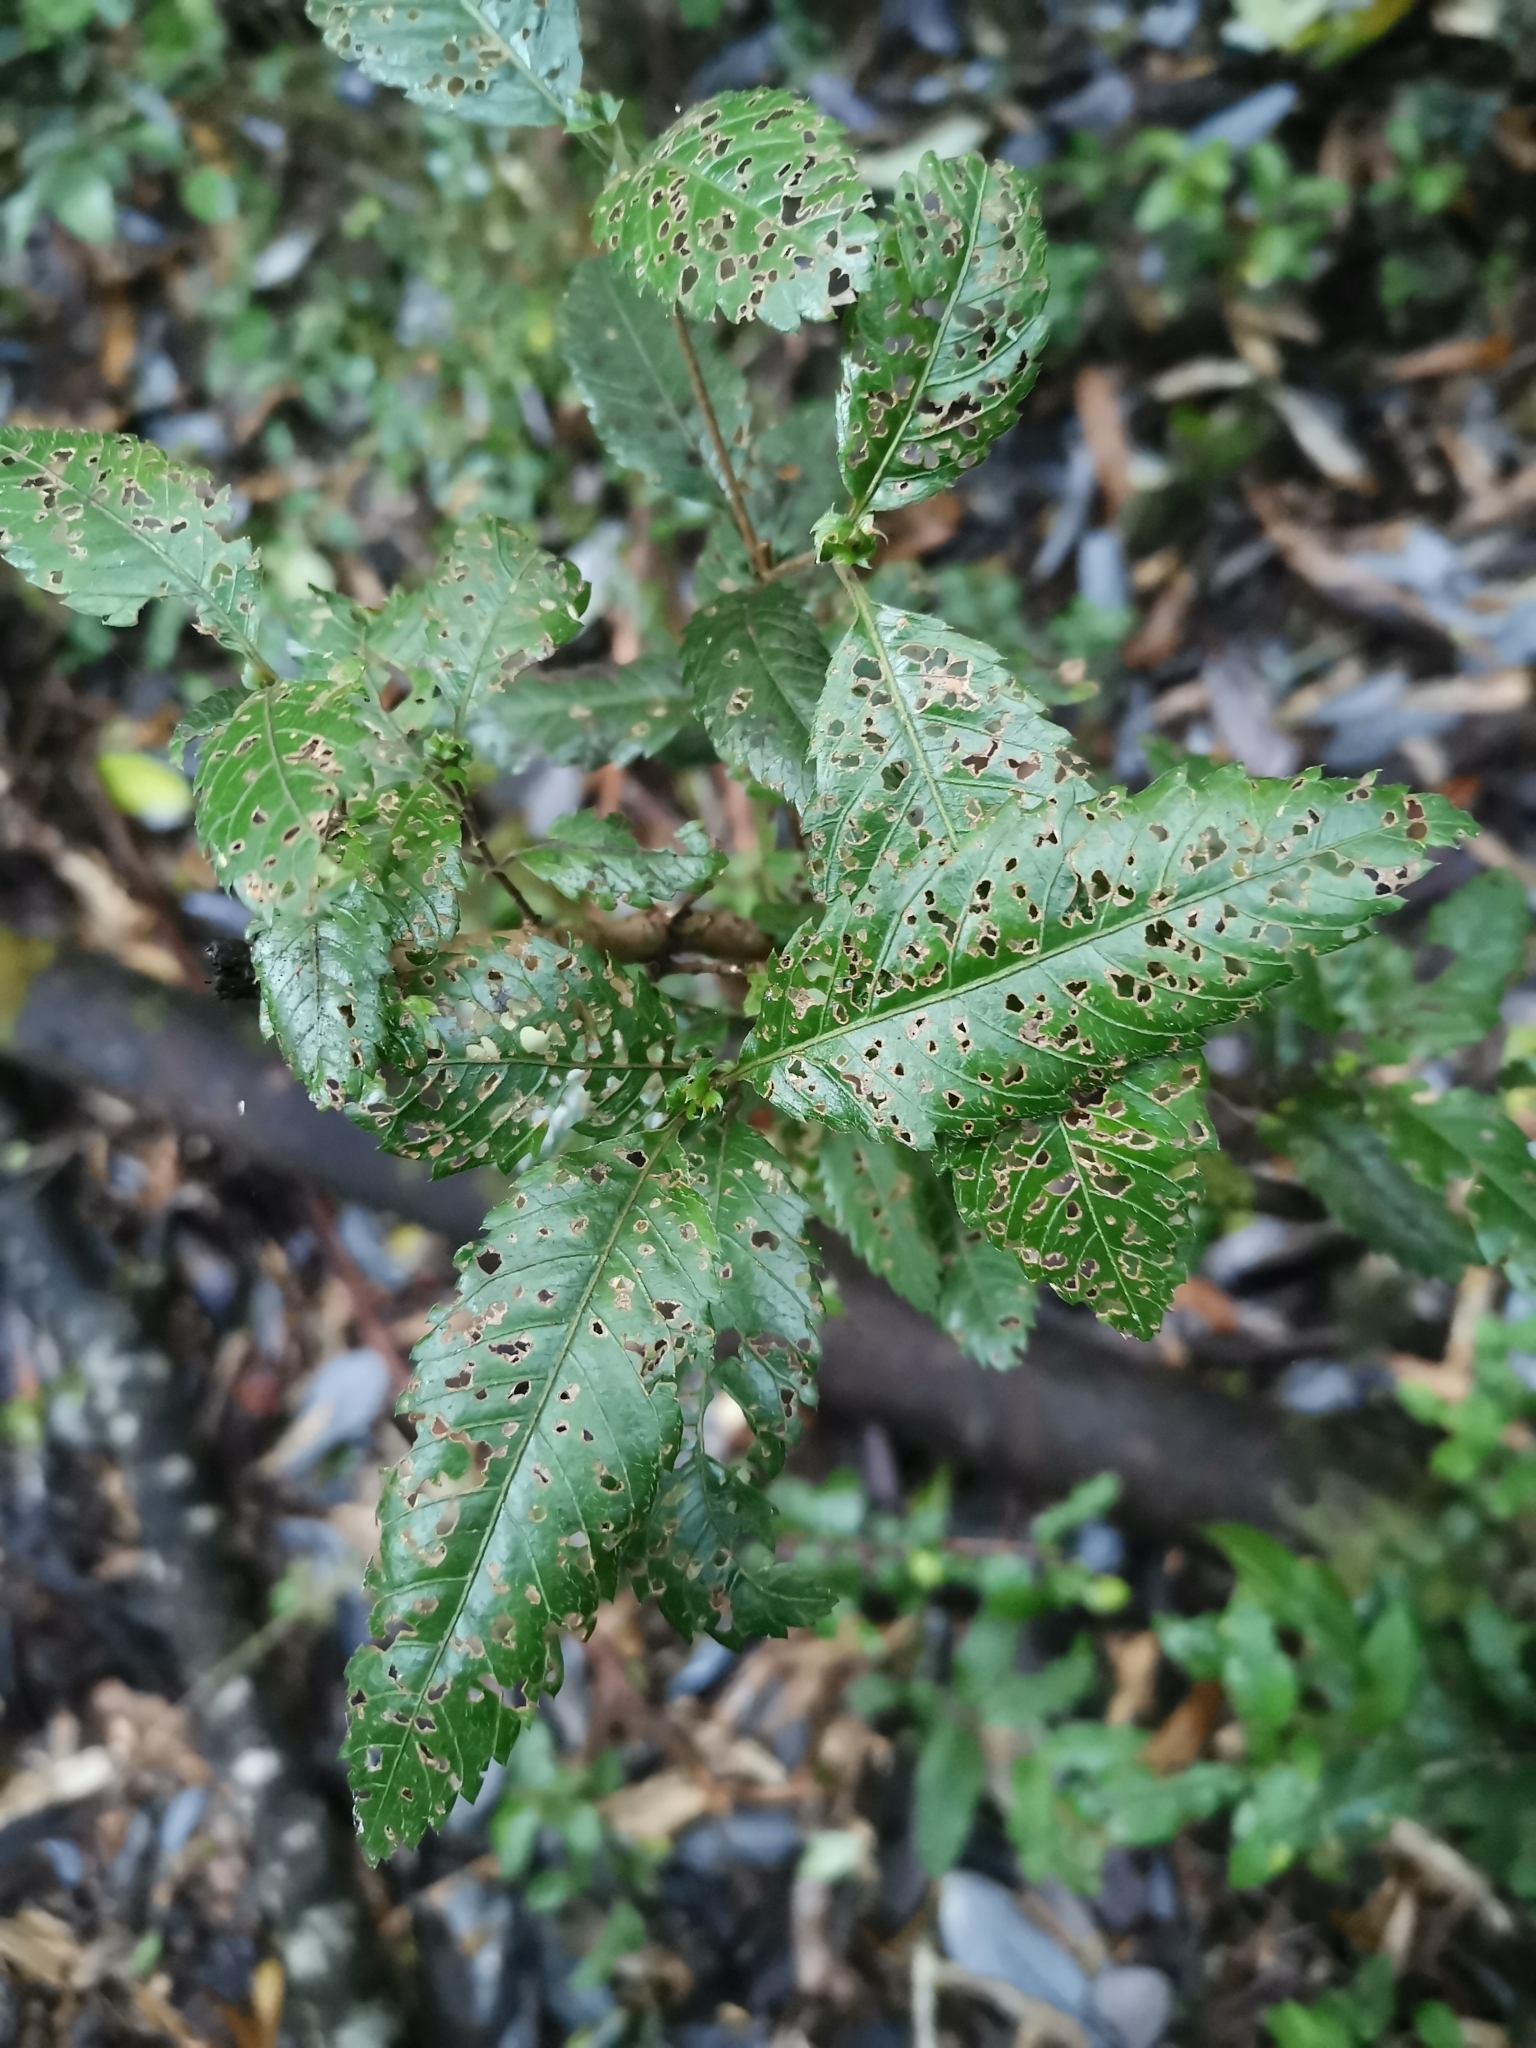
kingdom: Plantae
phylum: Tracheophyta
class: Magnoliopsida
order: Oxalidales
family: Cunoniaceae
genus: Caldcluvia
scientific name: Caldcluvia paniculata
